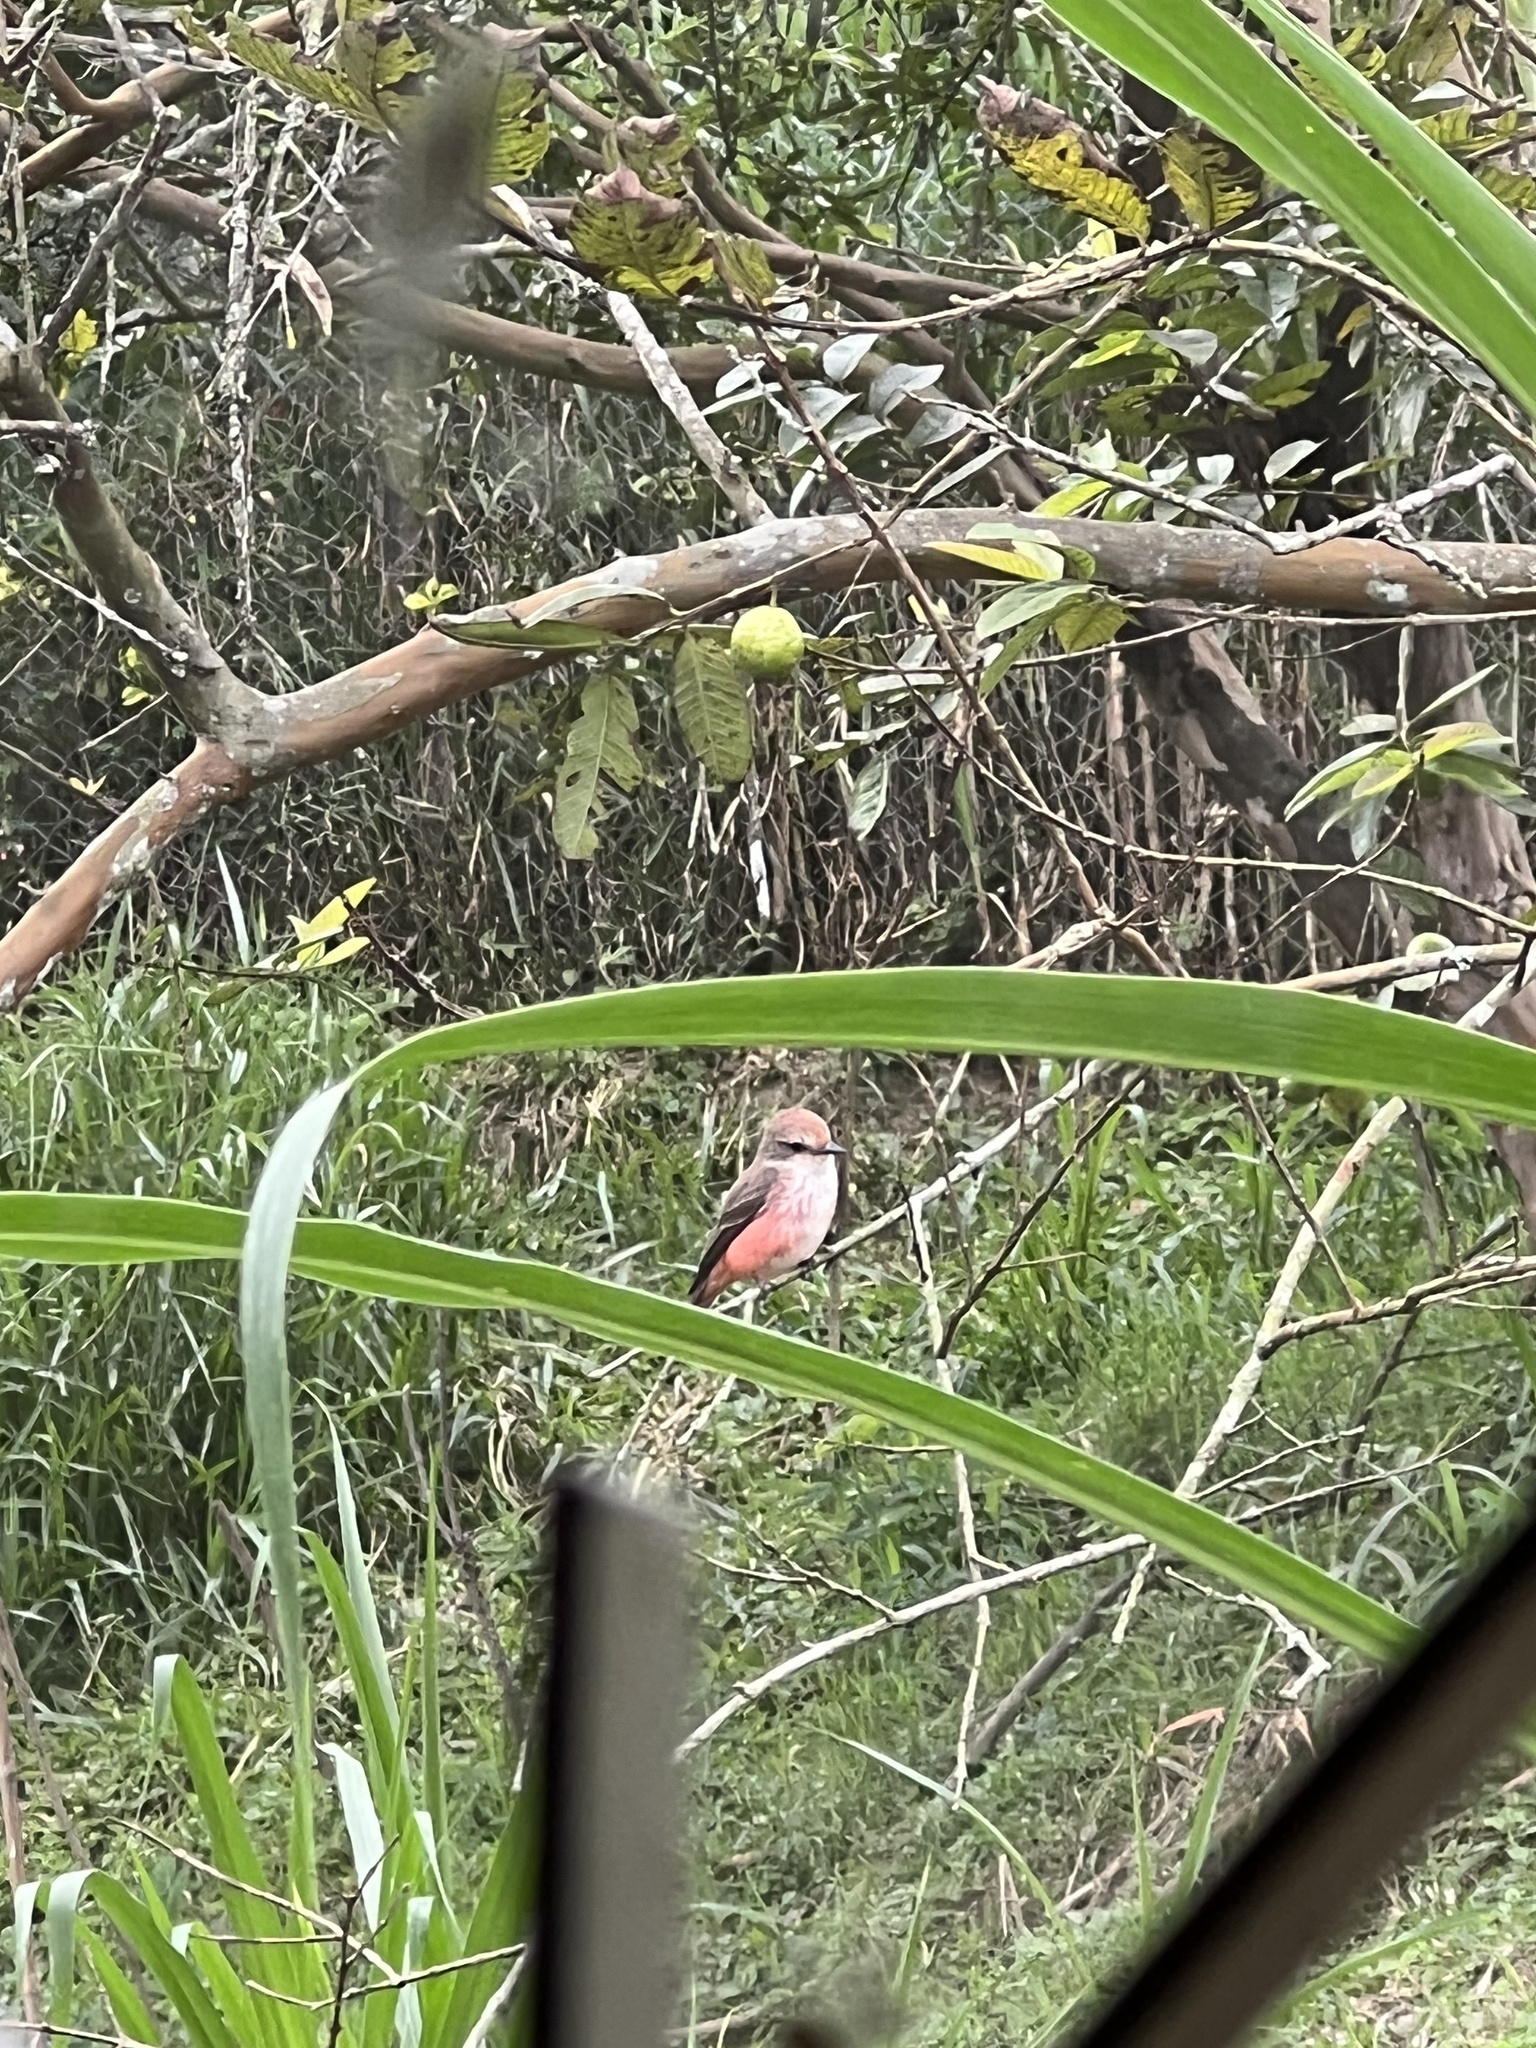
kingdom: Animalia
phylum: Chordata
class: Aves
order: Passeriformes
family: Tyrannidae
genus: Pyrocephalus
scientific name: Pyrocephalus rubinus
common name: Vermilion flycatcher
